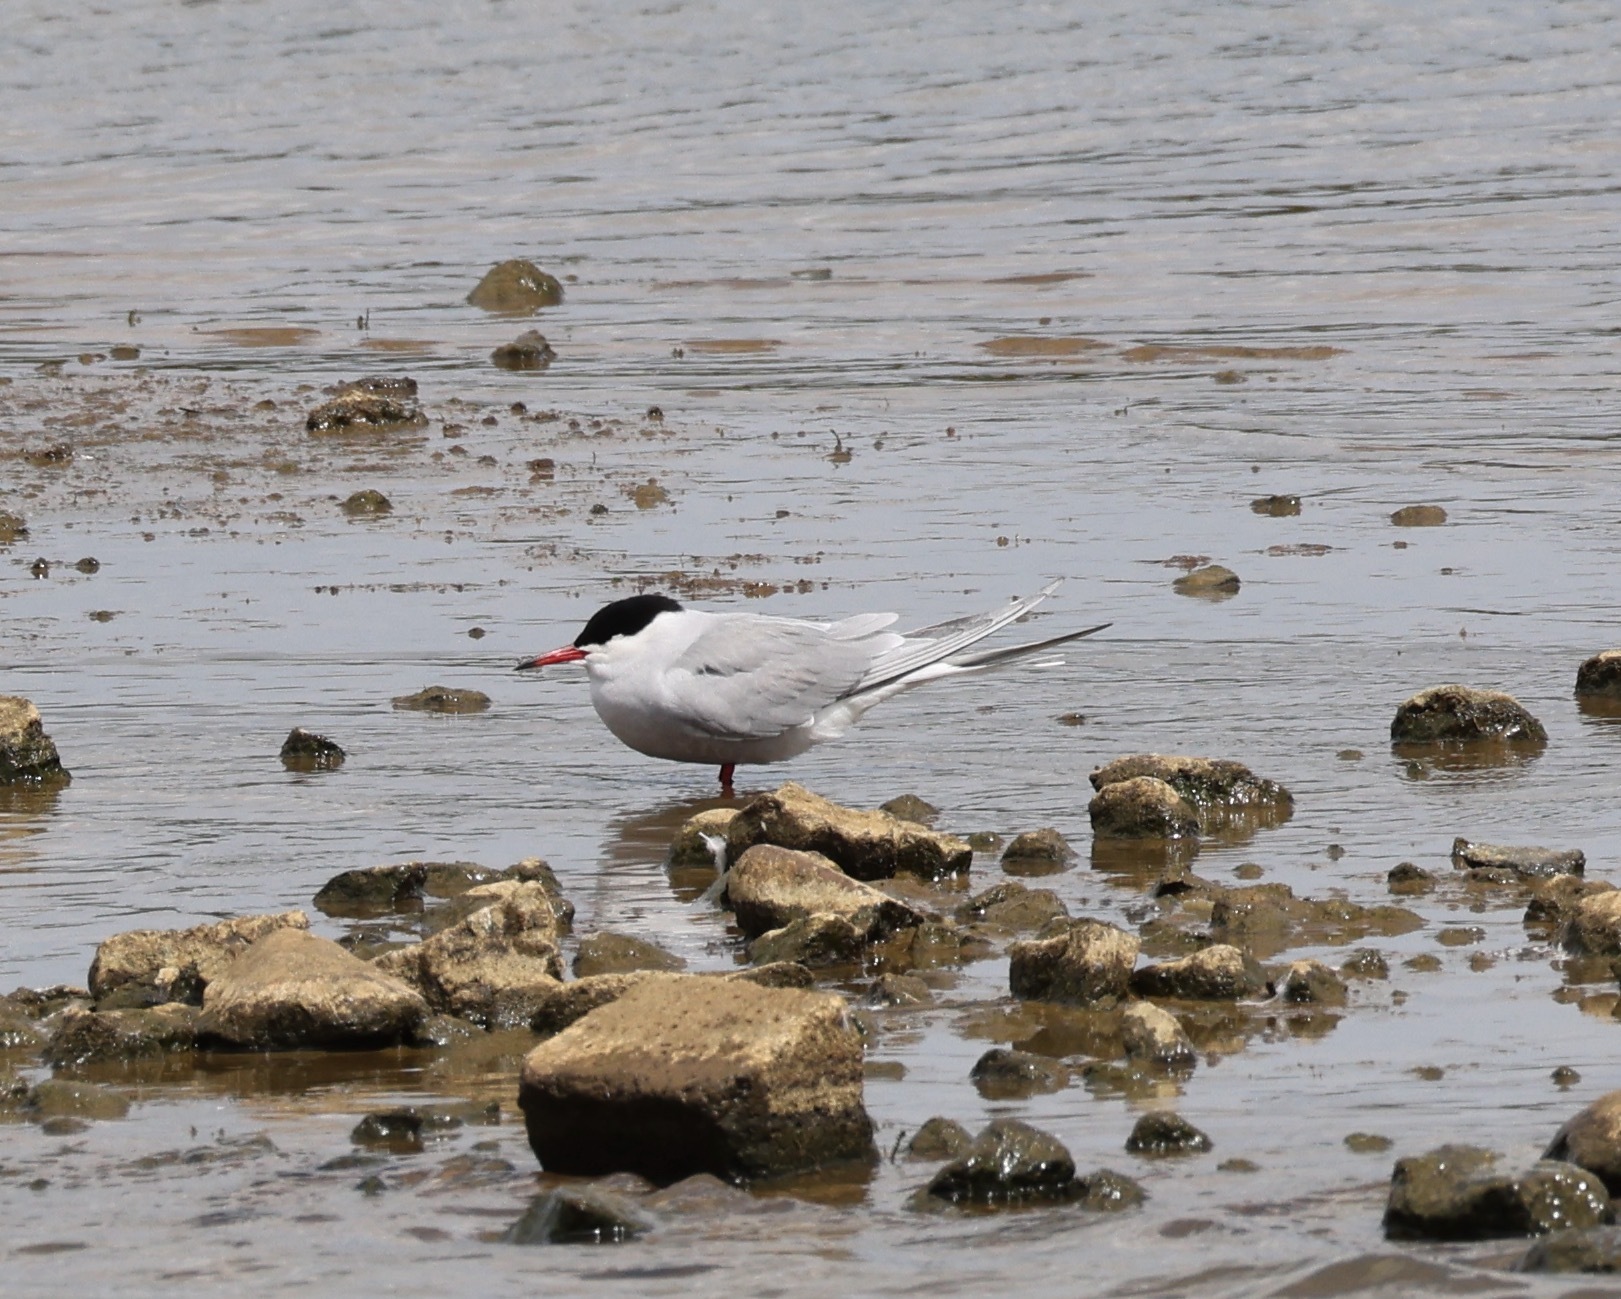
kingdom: Animalia
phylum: Chordata
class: Aves
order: Charadriiformes
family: Laridae
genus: Sterna
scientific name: Sterna hirundo
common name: Common tern
